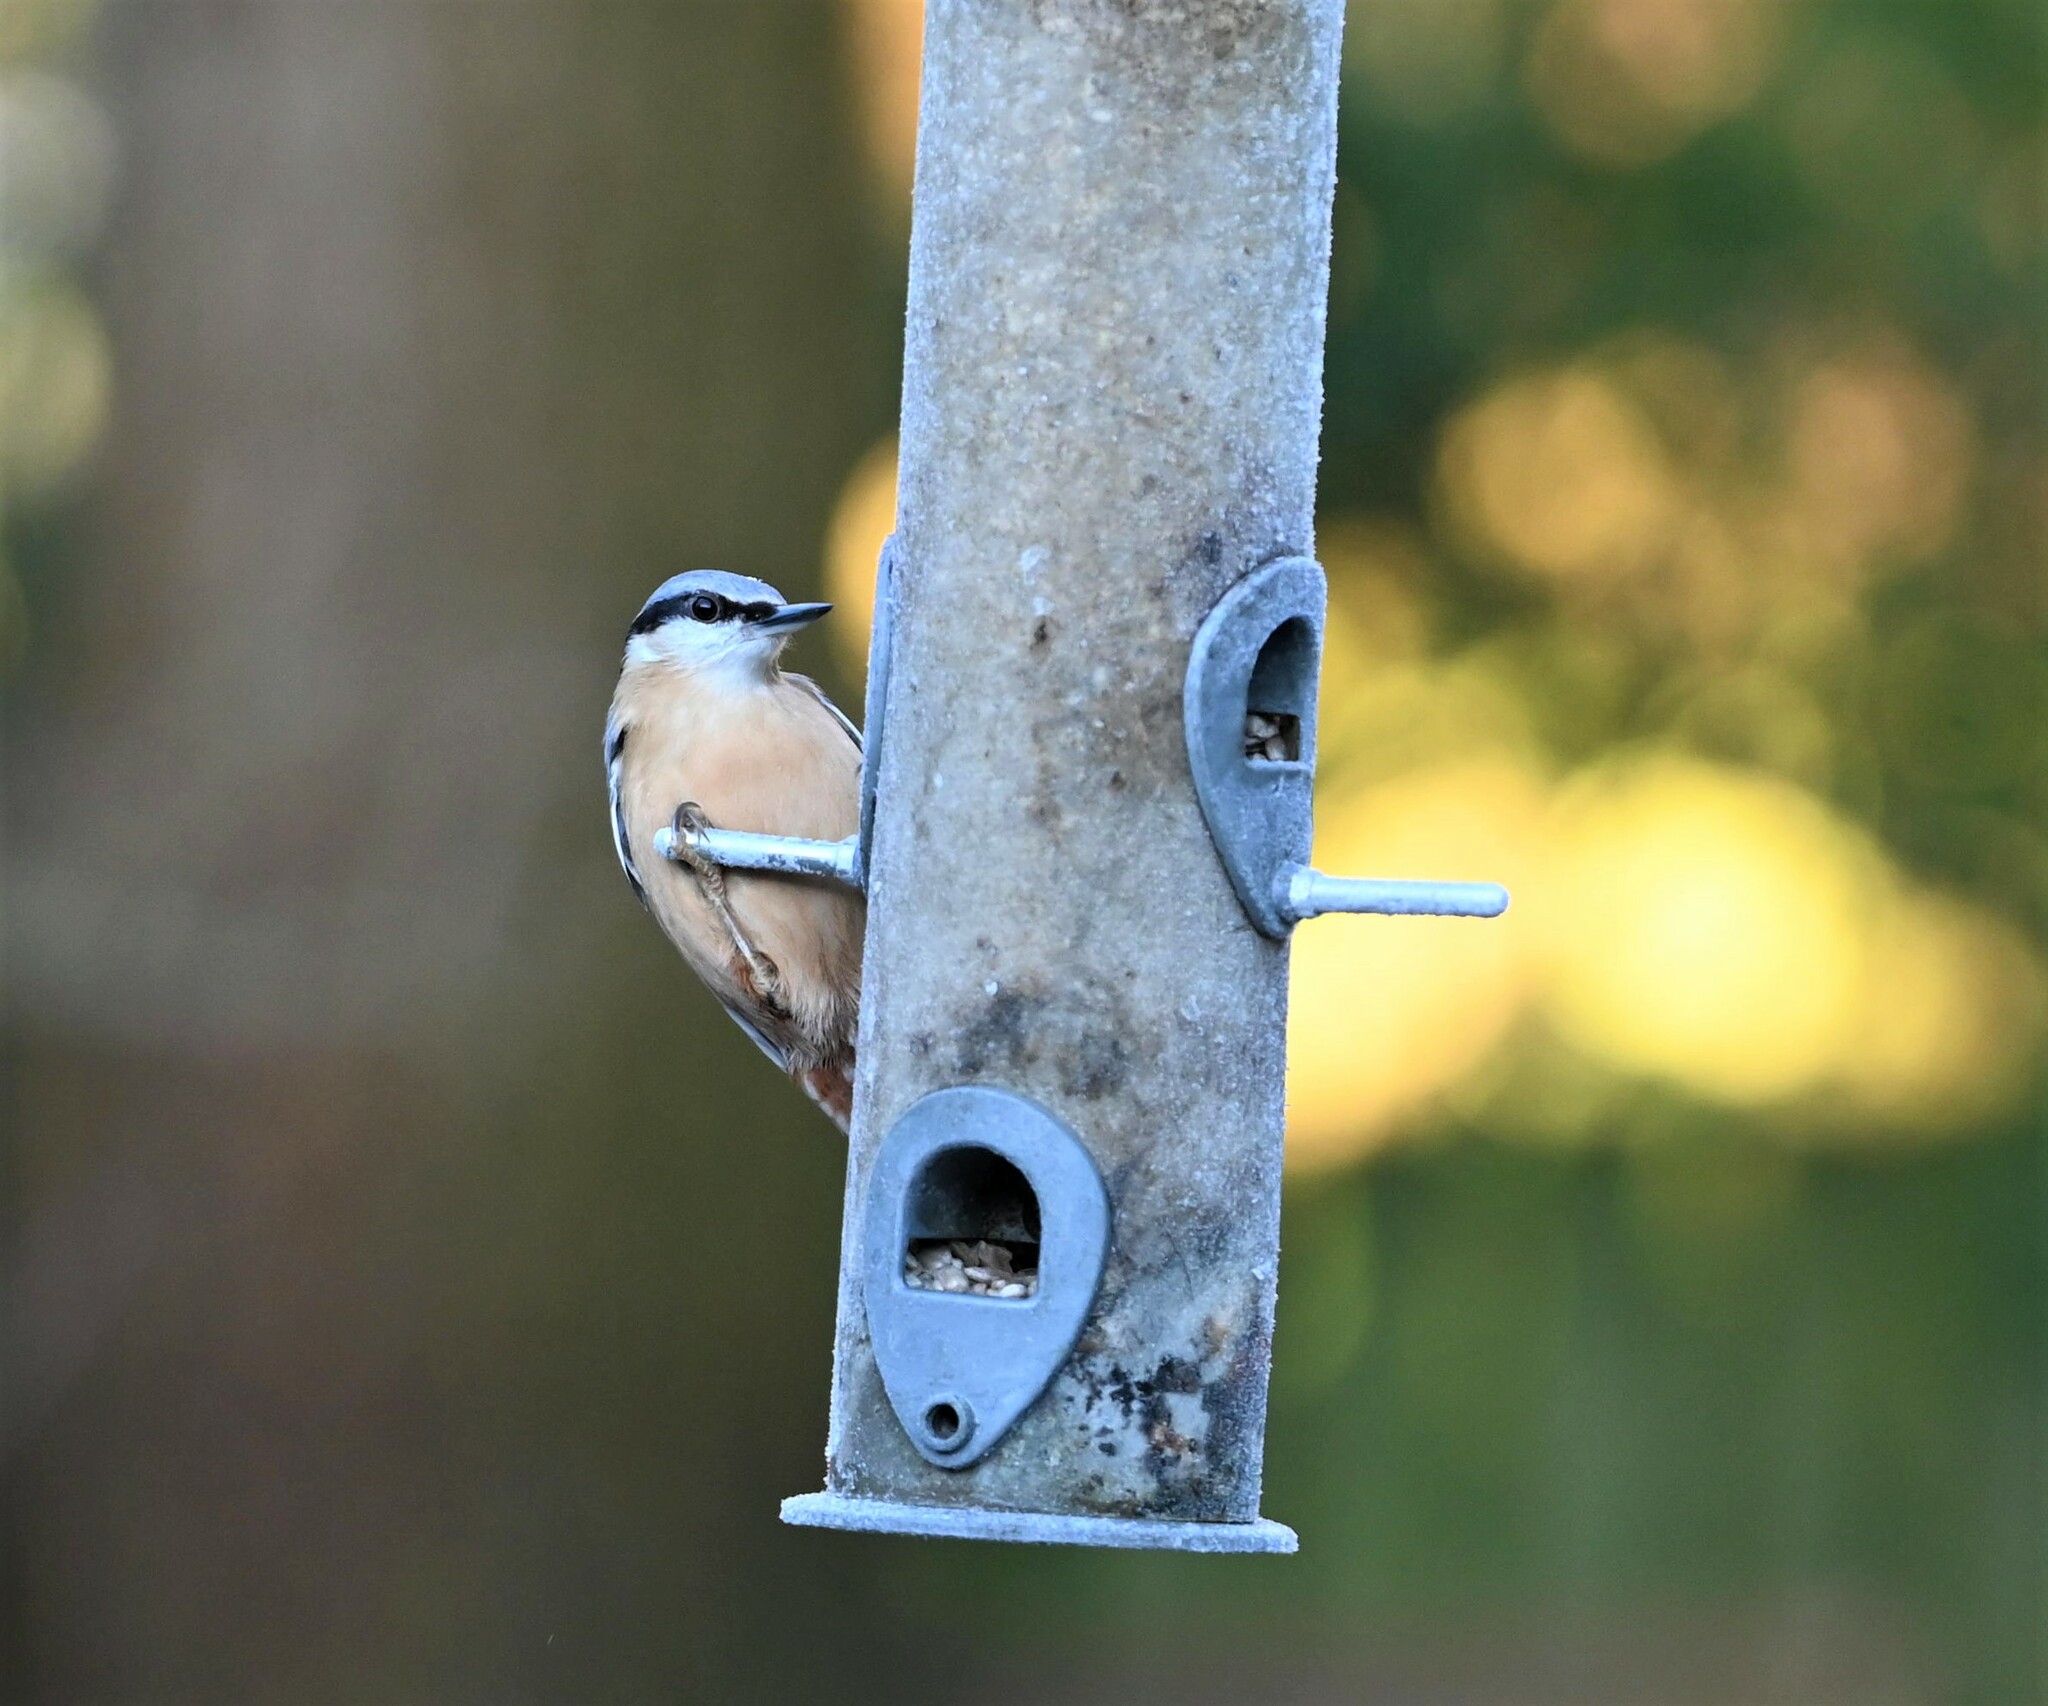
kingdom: Animalia
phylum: Chordata
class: Aves
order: Passeriformes
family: Sittidae
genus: Sitta
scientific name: Sitta europaea
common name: Eurasian nuthatch
